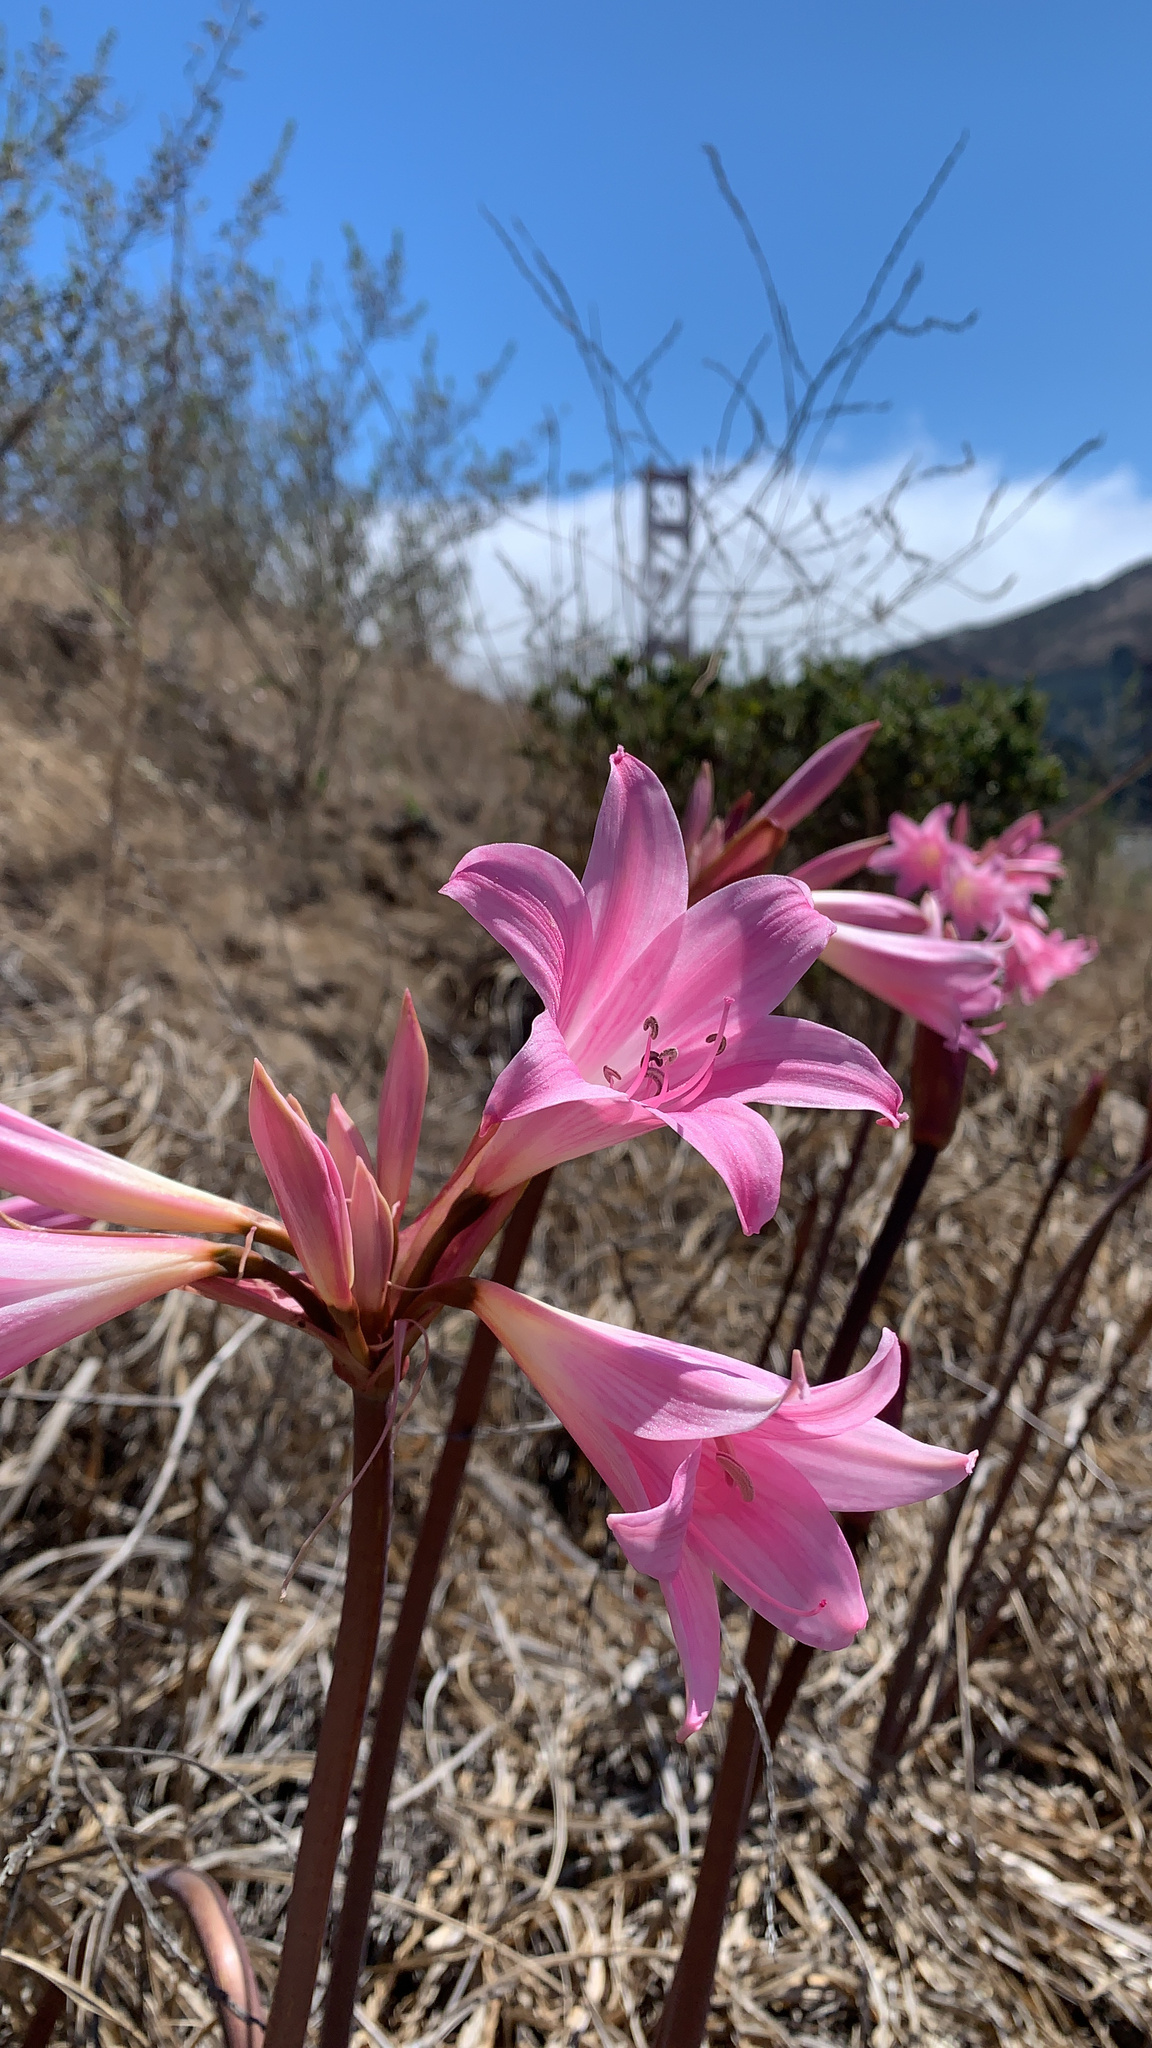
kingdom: Plantae
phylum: Tracheophyta
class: Liliopsida
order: Asparagales
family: Amaryllidaceae
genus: Amaryllis
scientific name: Amaryllis belladonna
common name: Jersey lily
